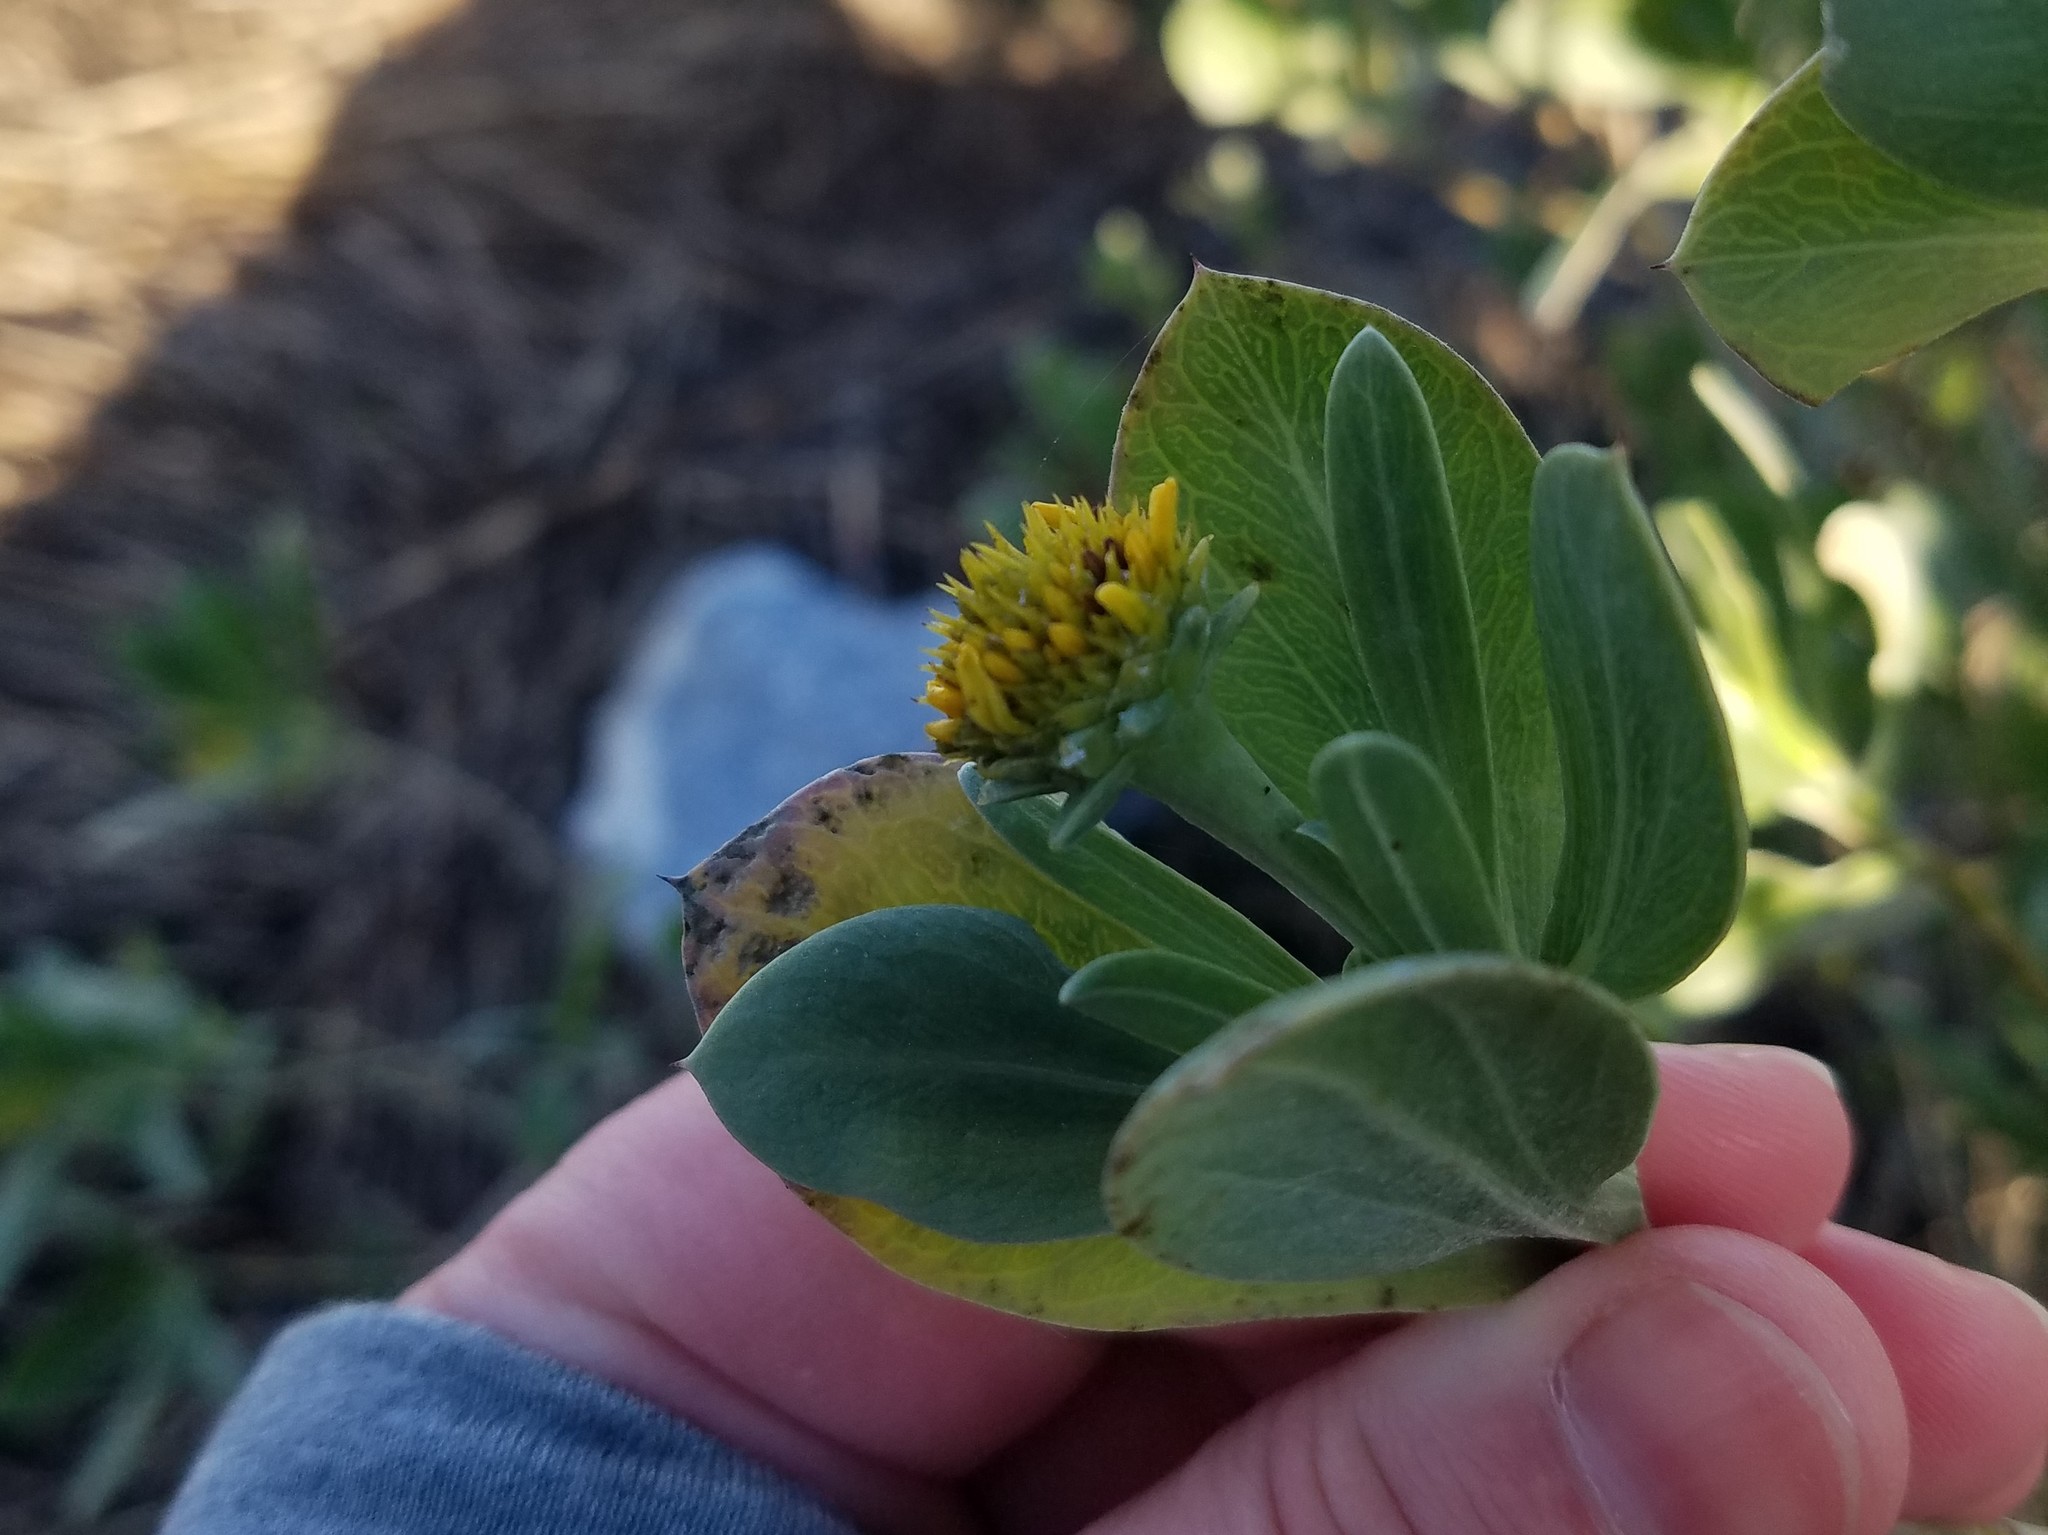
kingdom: Plantae
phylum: Tracheophyta
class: Magnoliopsida
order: Asterales
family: Asteraceae
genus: Borrichia
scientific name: Borrichia frutescens
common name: Sea oxeye
